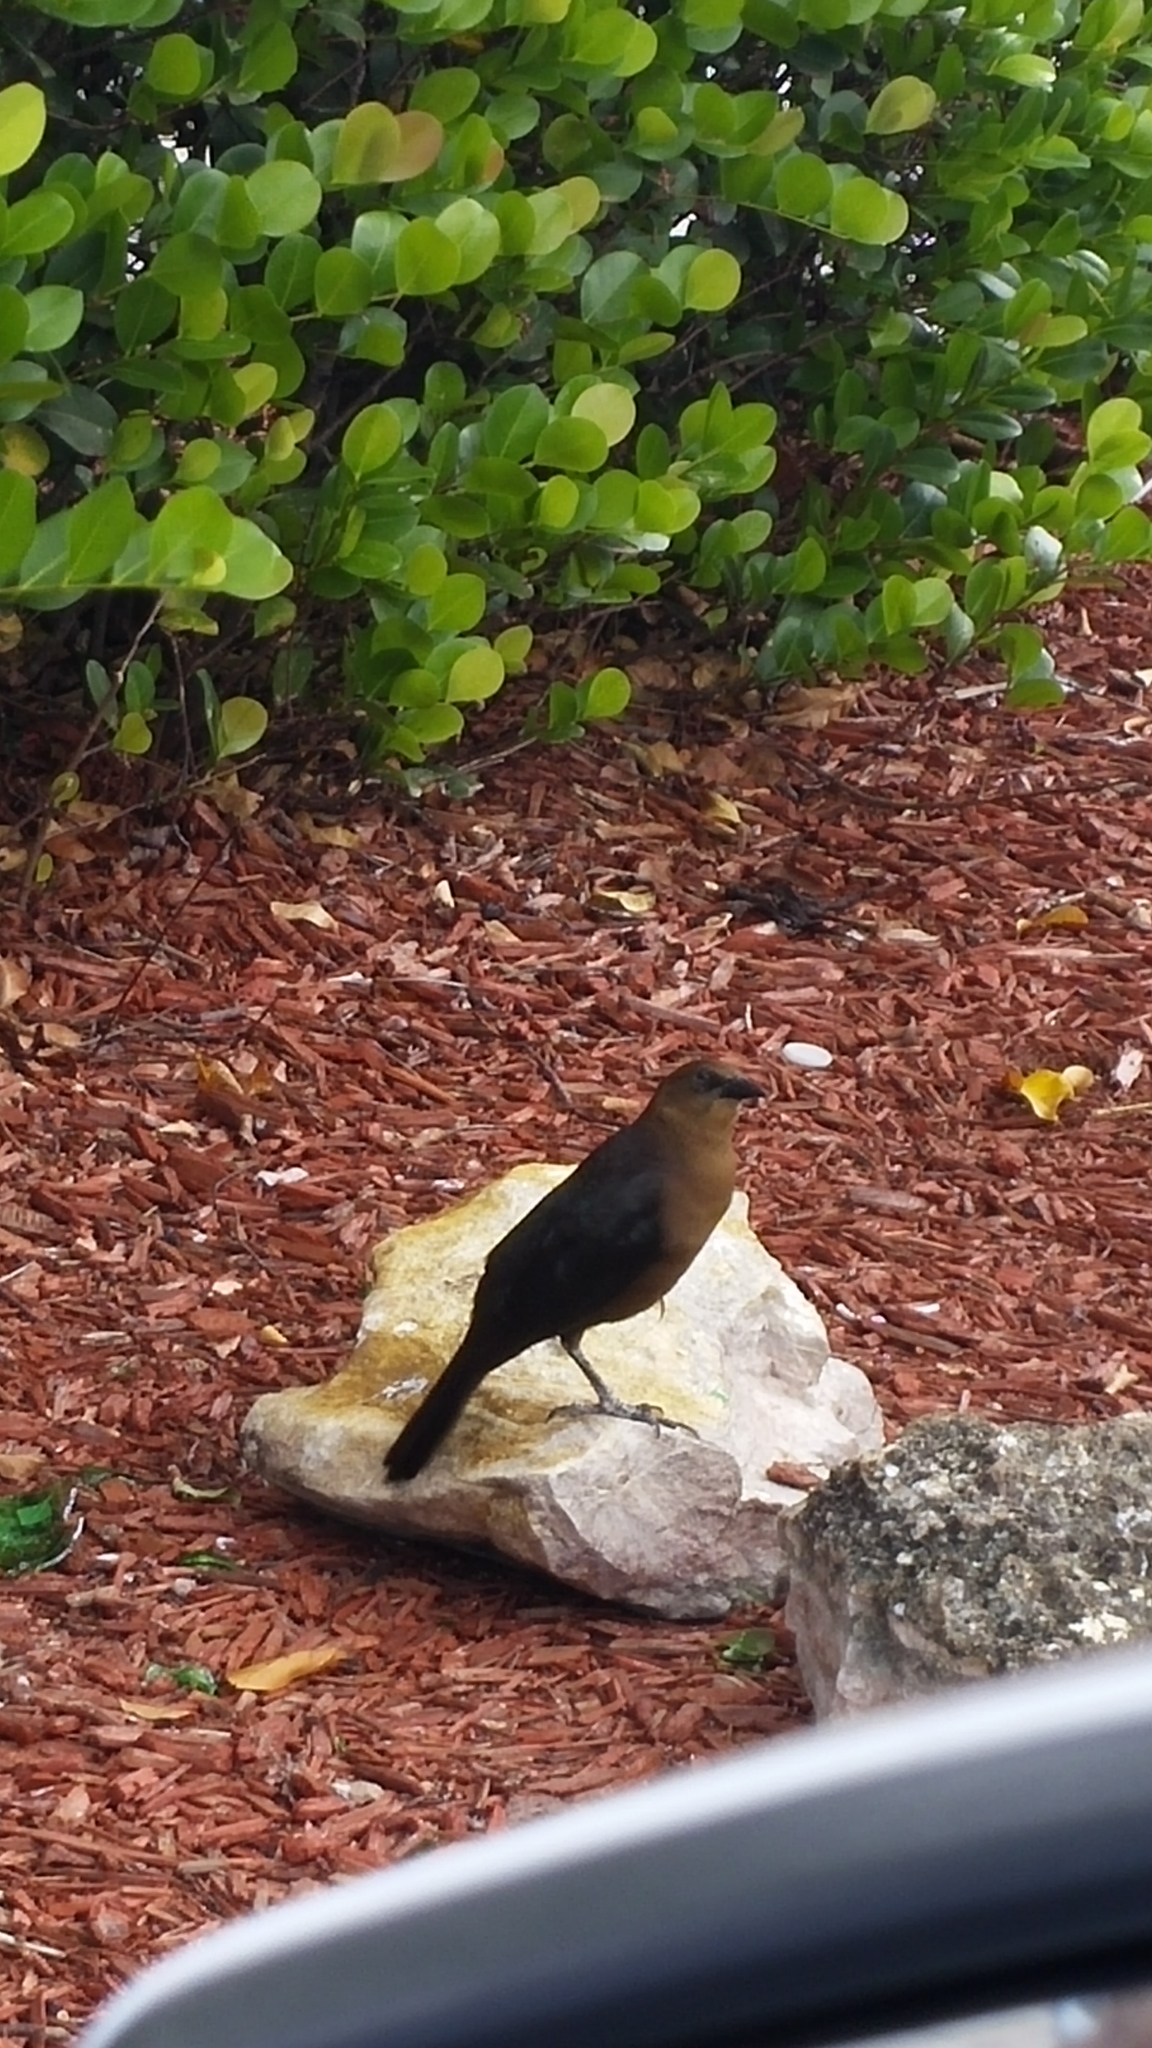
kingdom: Animalia
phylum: Chordata
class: Aves
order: Passeriformes
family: Icteridae
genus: Quiscalus
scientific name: Quiscalus major
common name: Boat-tailed grackle
